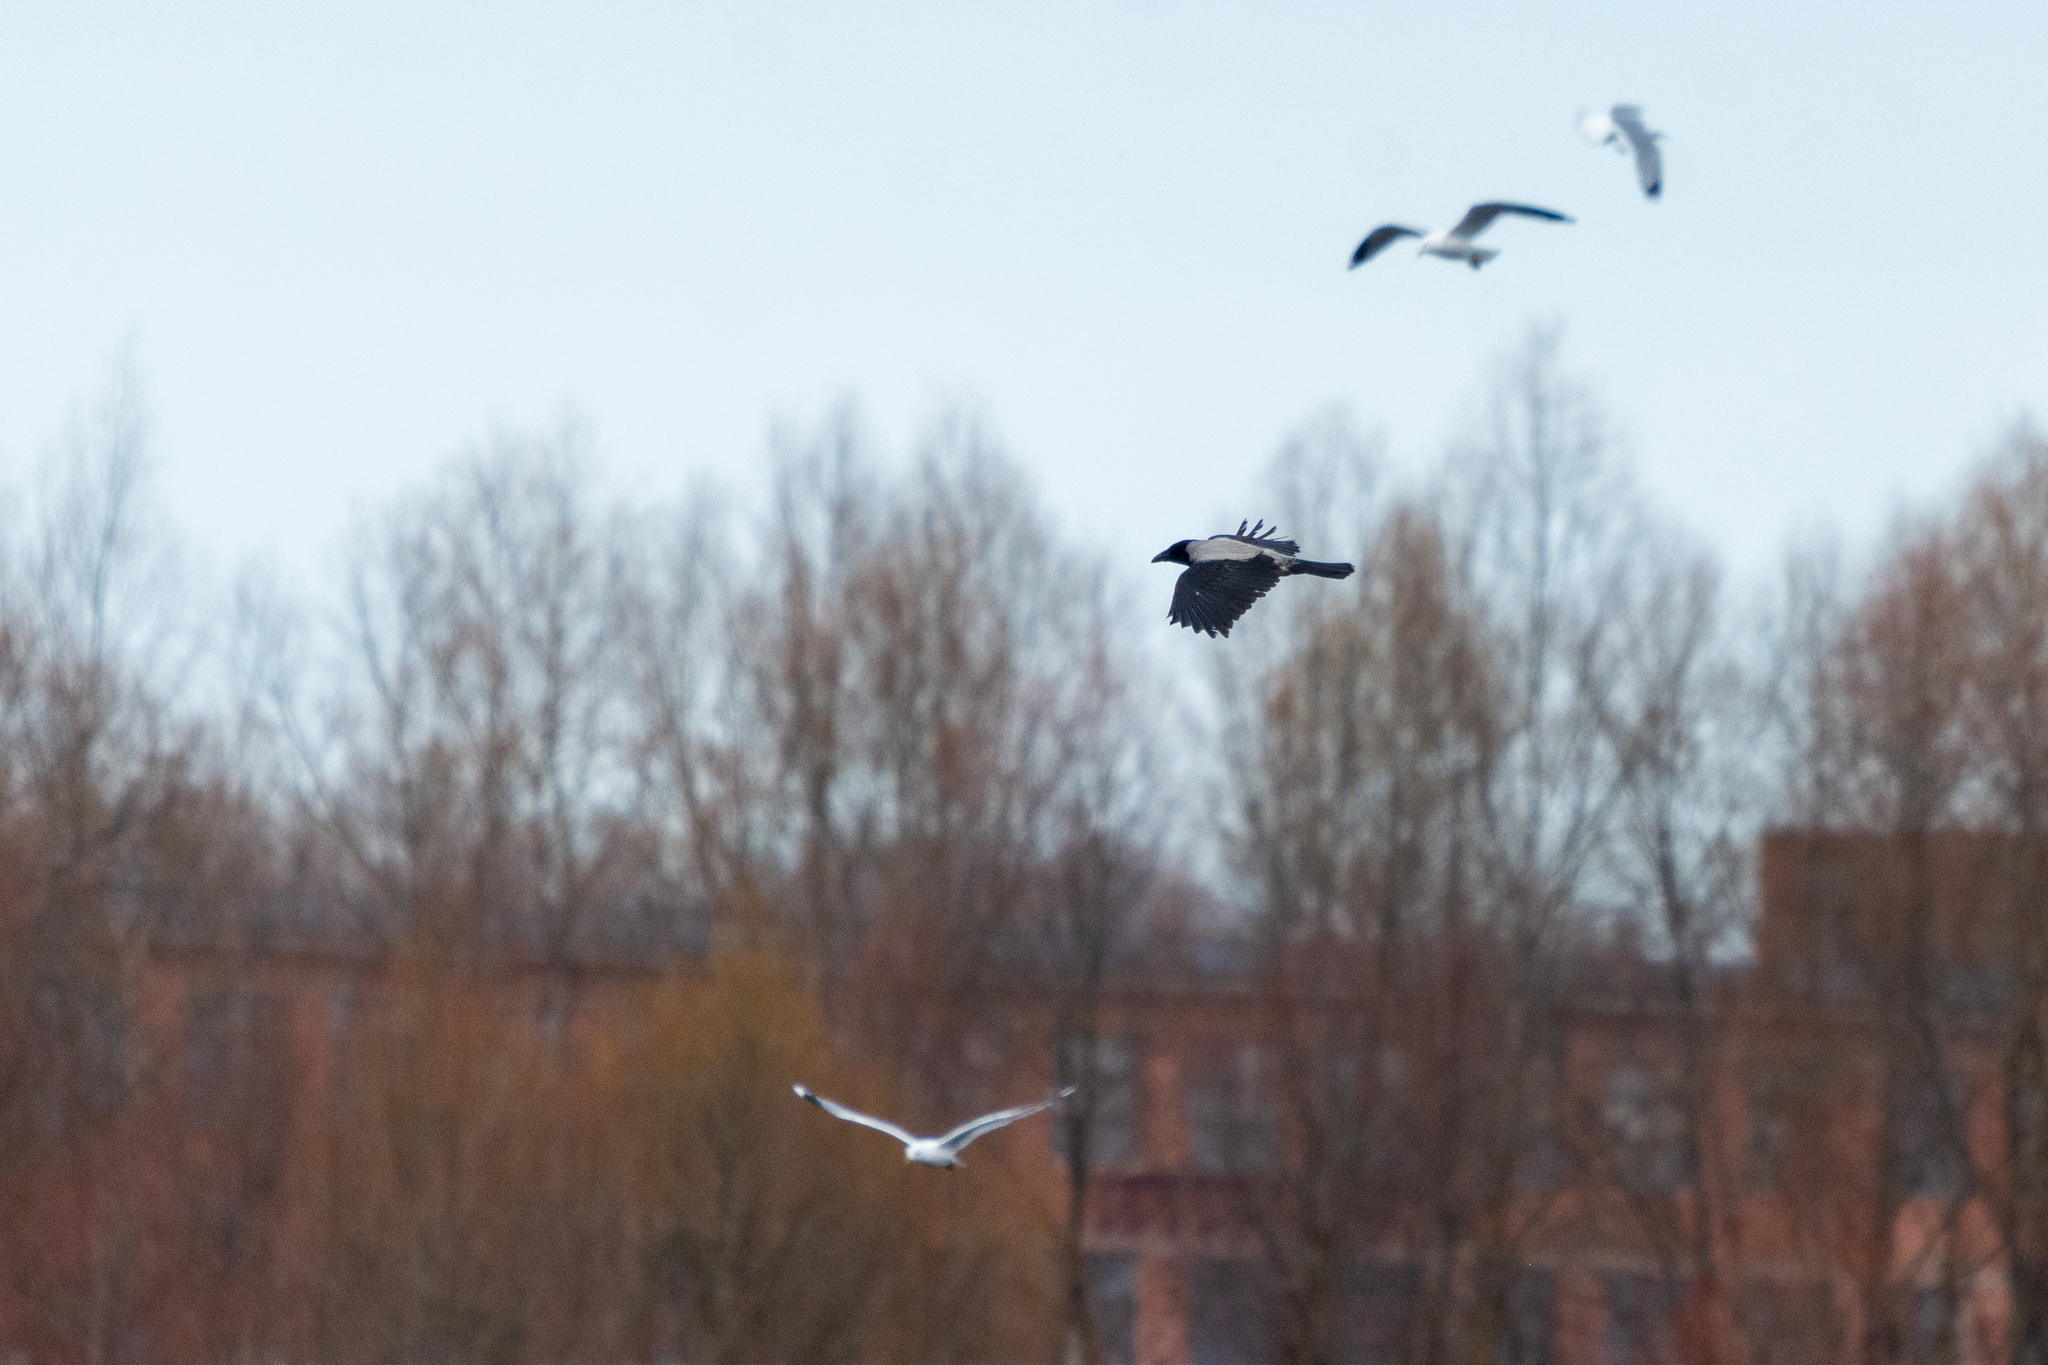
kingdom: Animalia
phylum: Chordata
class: Aves
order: Passeriformes
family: Corvidae
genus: Corvus
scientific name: Corvus cornix
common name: Hooded crow
